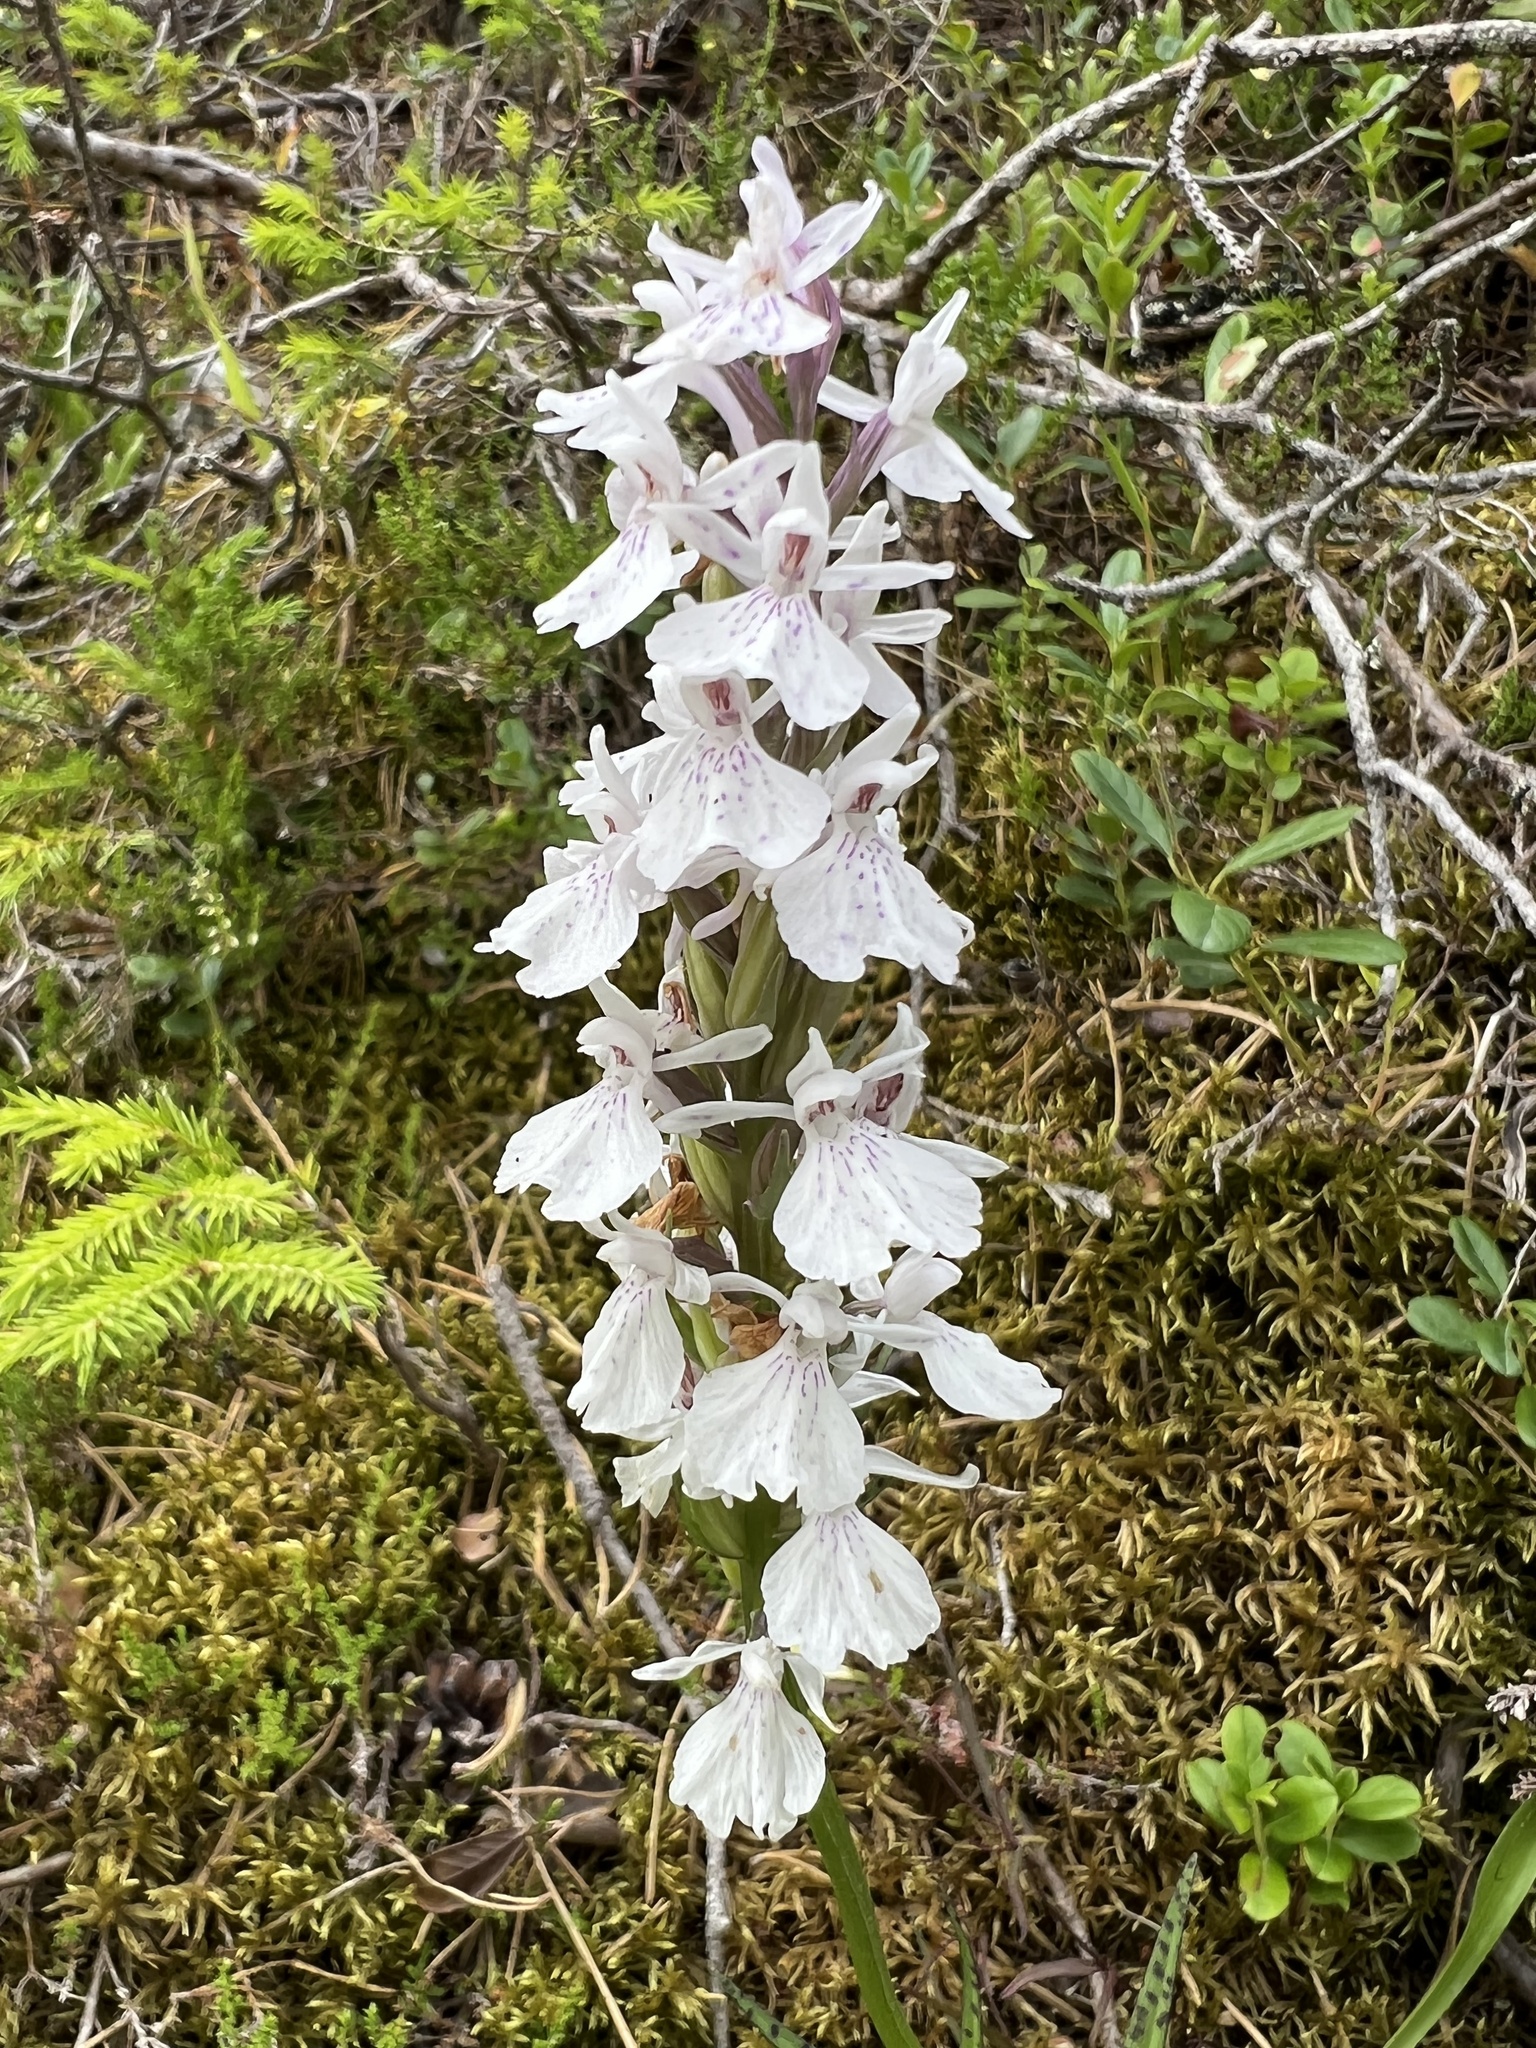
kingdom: Plantae
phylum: Tracheophyta
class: Liliopsida
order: Asparagales
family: Orchidaceae
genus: Dactylorhiza
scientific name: Dactylorhiza maculata
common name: Heath spotted-orchid
